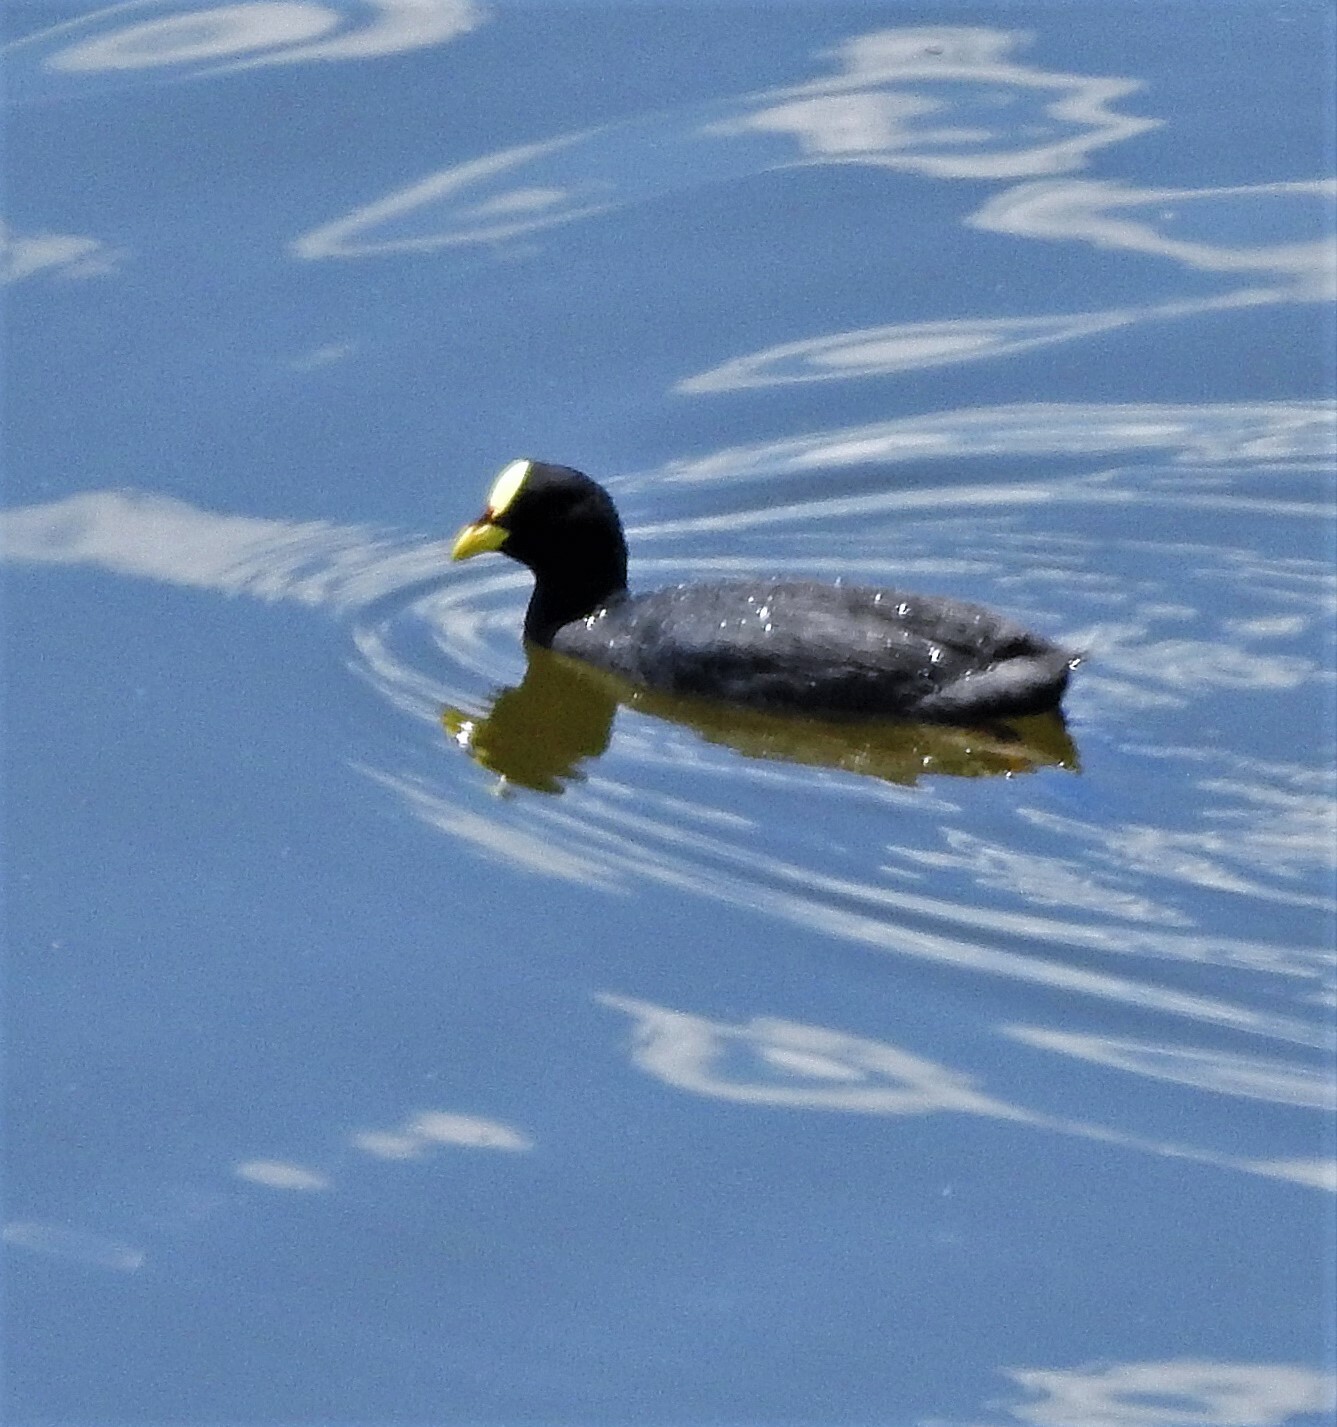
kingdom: Animalia
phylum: Chordata
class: Aves
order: Gruiformes
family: Rallidae
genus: Fulica
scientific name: Fulica armillata
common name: Red-gartered coot
